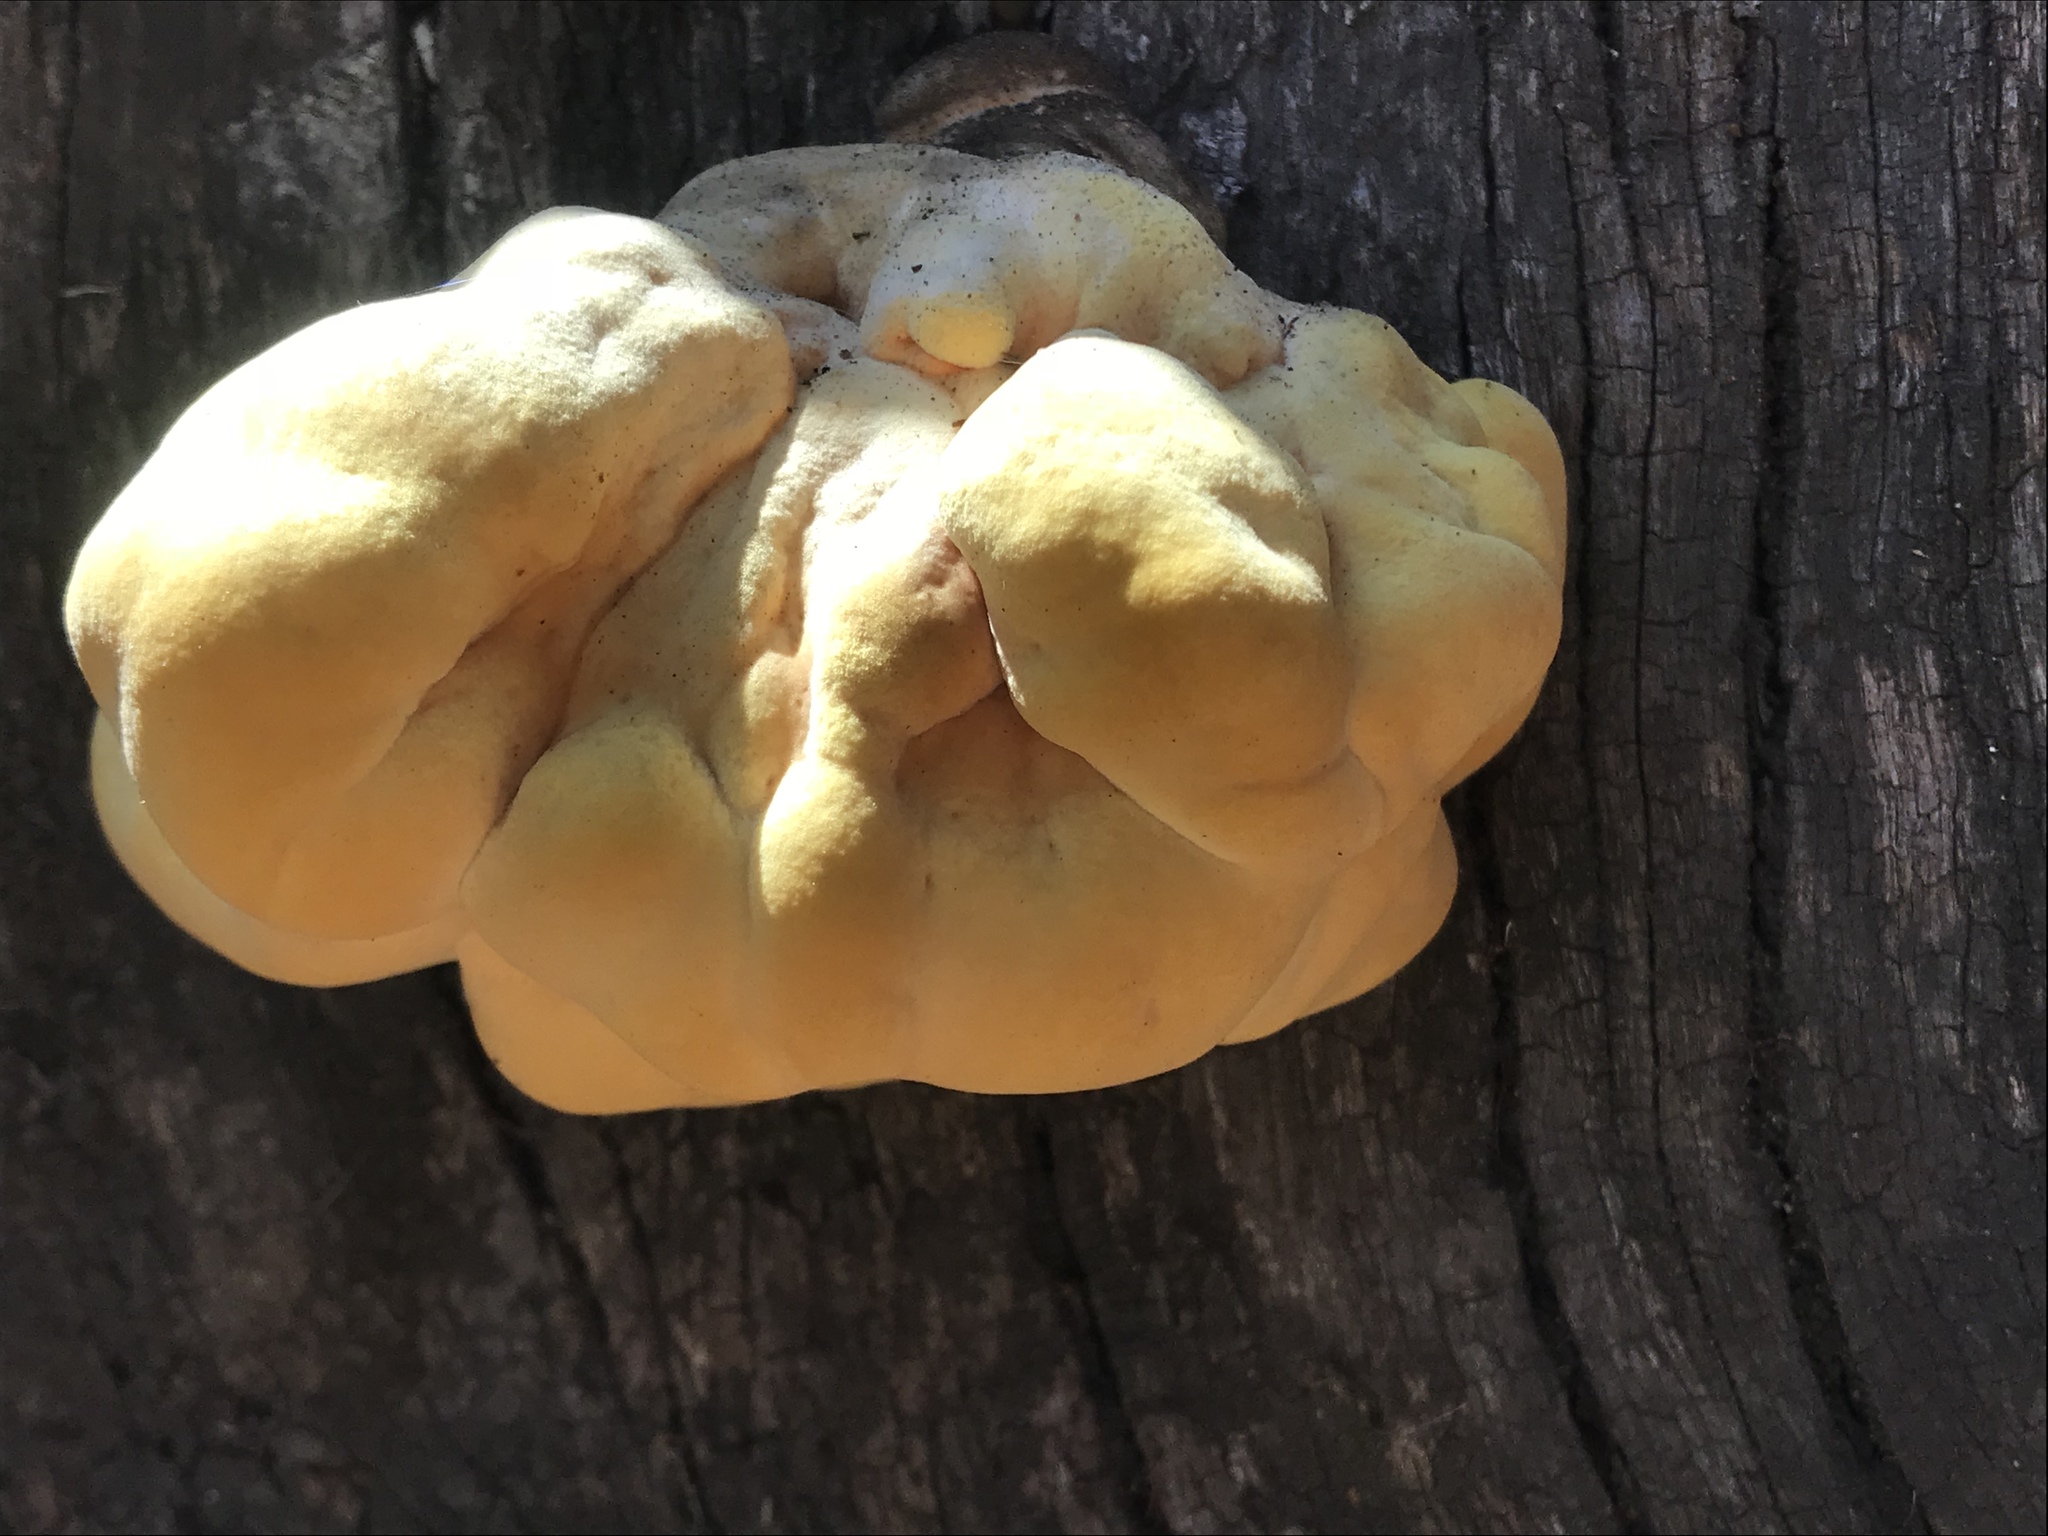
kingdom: Fungi
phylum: Basidiomycota
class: Agaricomycetes
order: Polyporales
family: Laetiporaceae
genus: Laetiporus
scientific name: Laetiporus gilbertsonii
